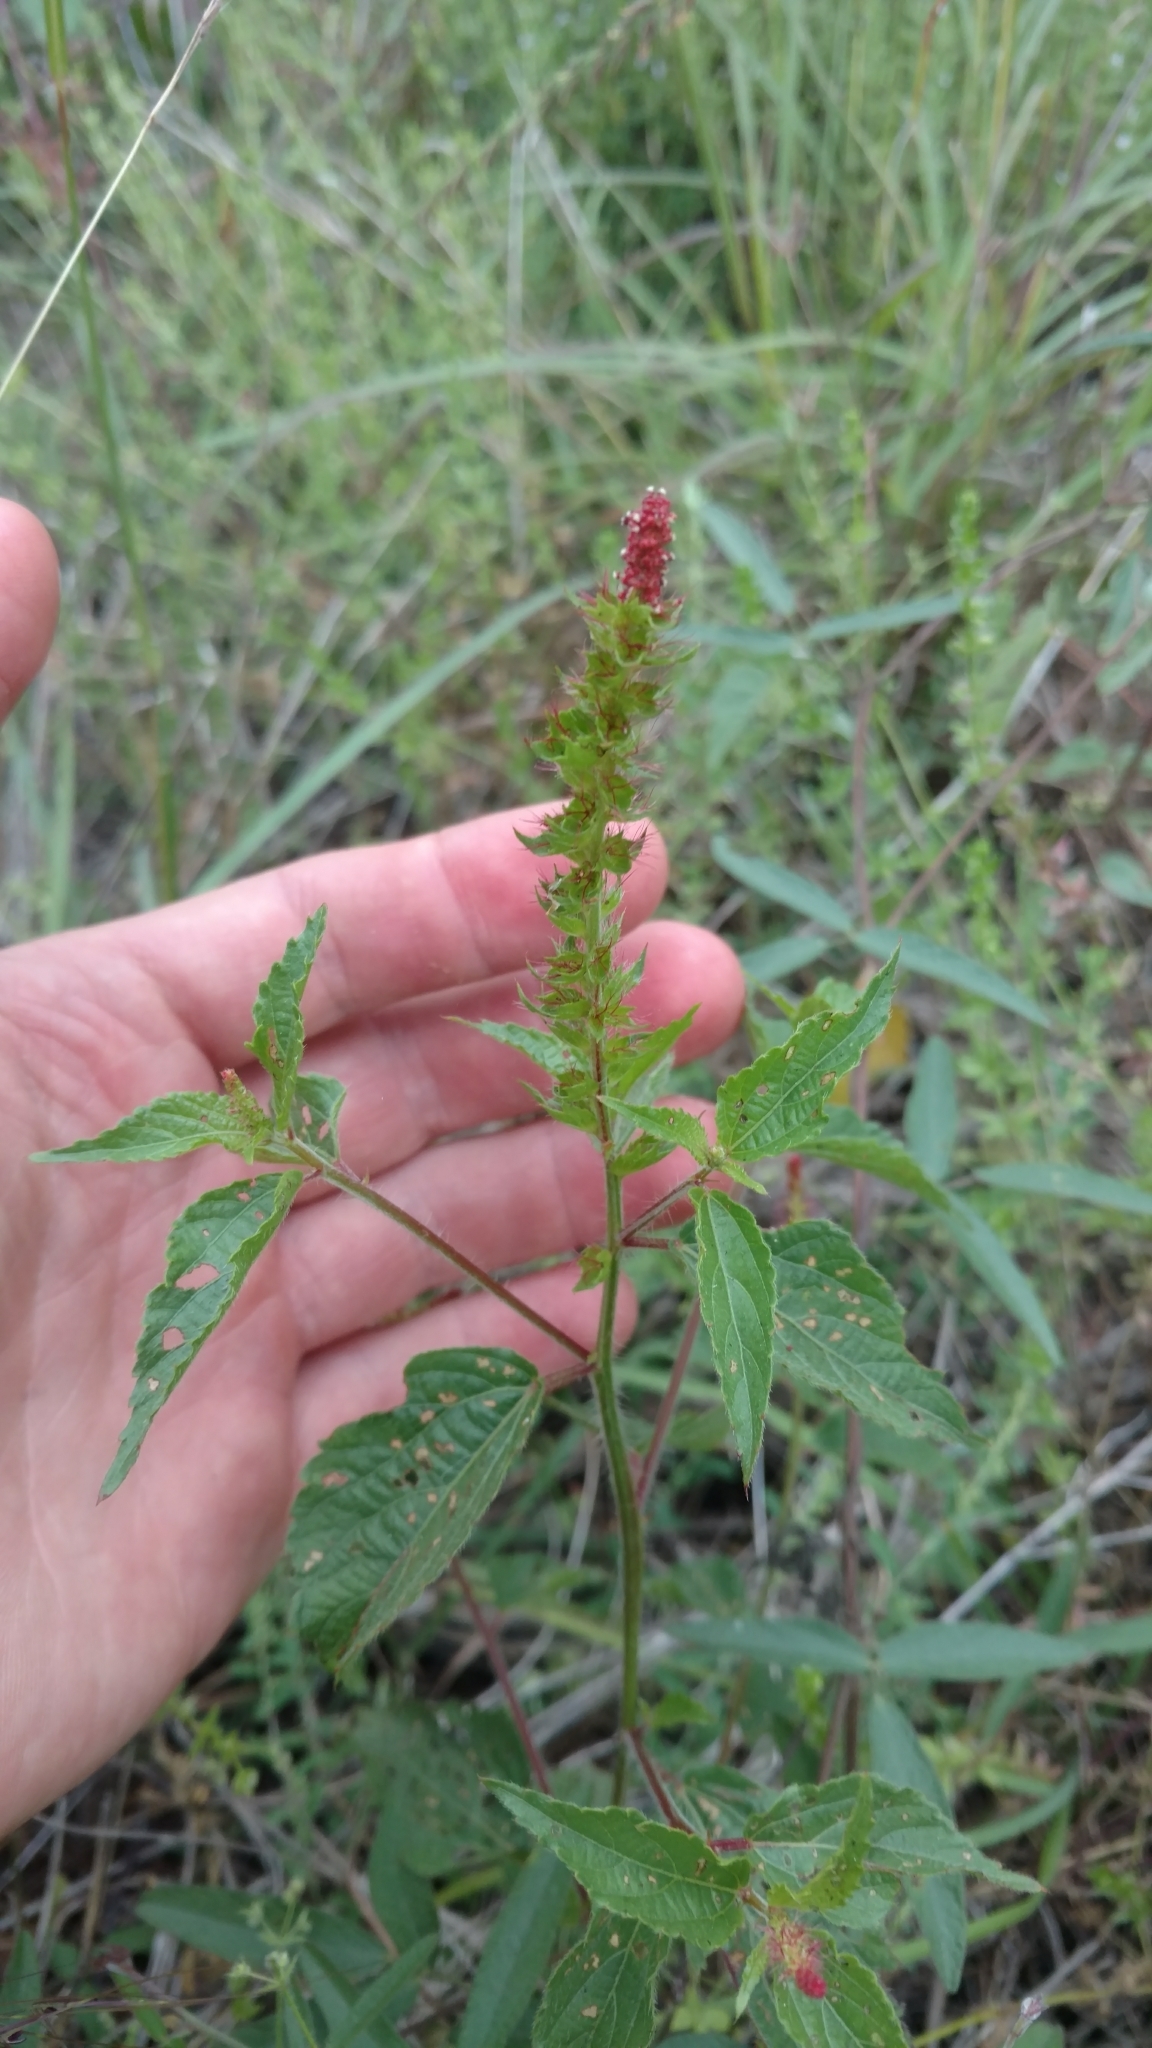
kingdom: Plantae
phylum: Tracheophyta
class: Magnoliopsida
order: Malpighiales
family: Euphorbiaceae
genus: Acalypha
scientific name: Acalypha phleoides
